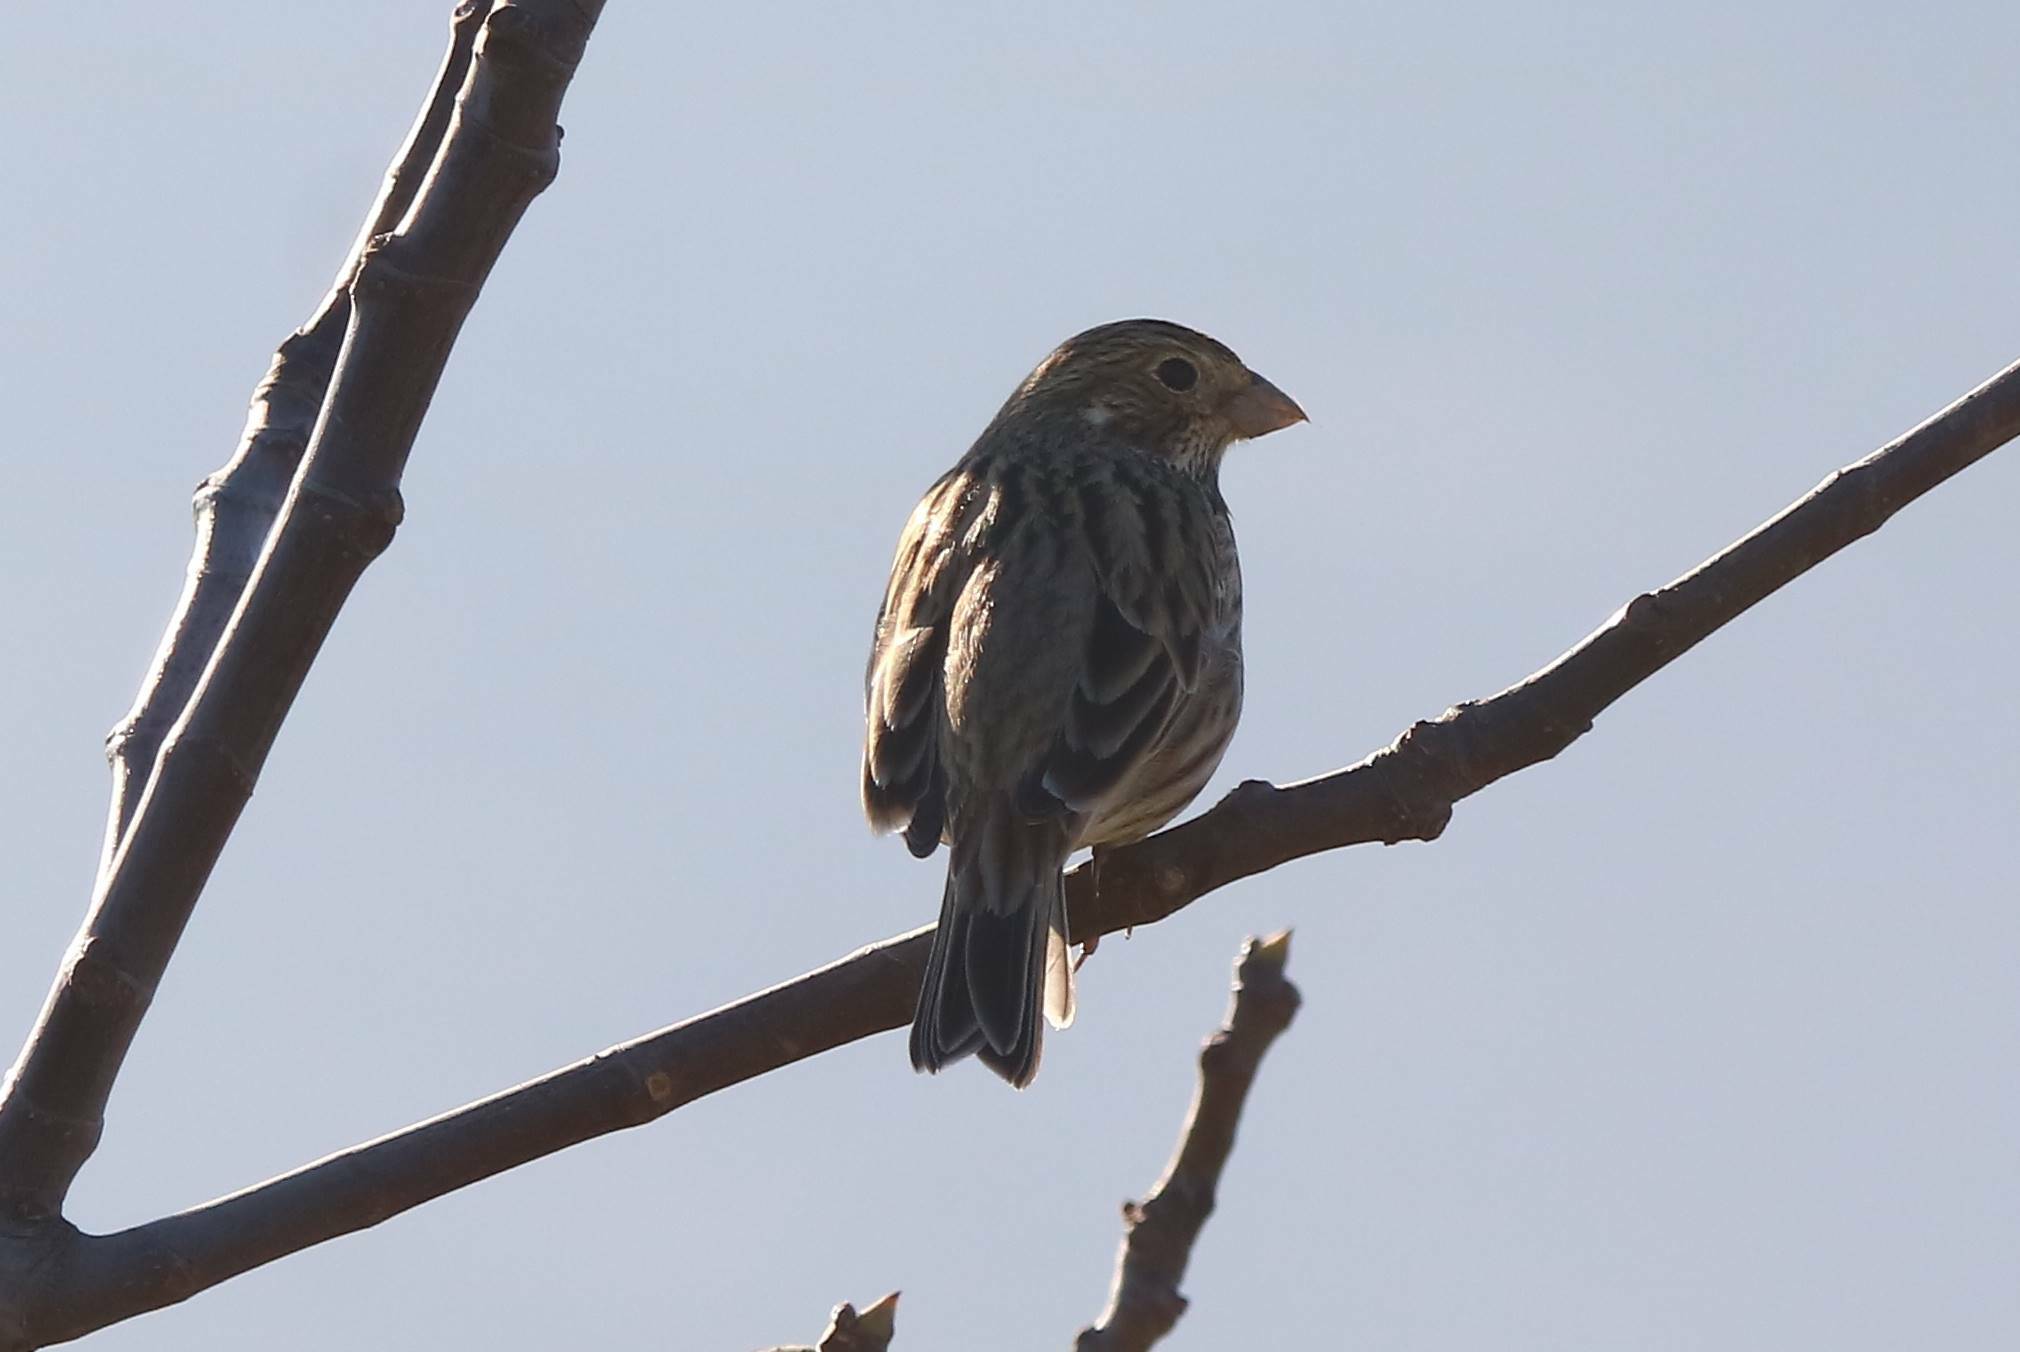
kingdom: Animalia
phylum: Chordata
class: Aves
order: Passeriformes
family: Emberizidae
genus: Emberiza
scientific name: Emberiza calandra
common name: Corn bunting
